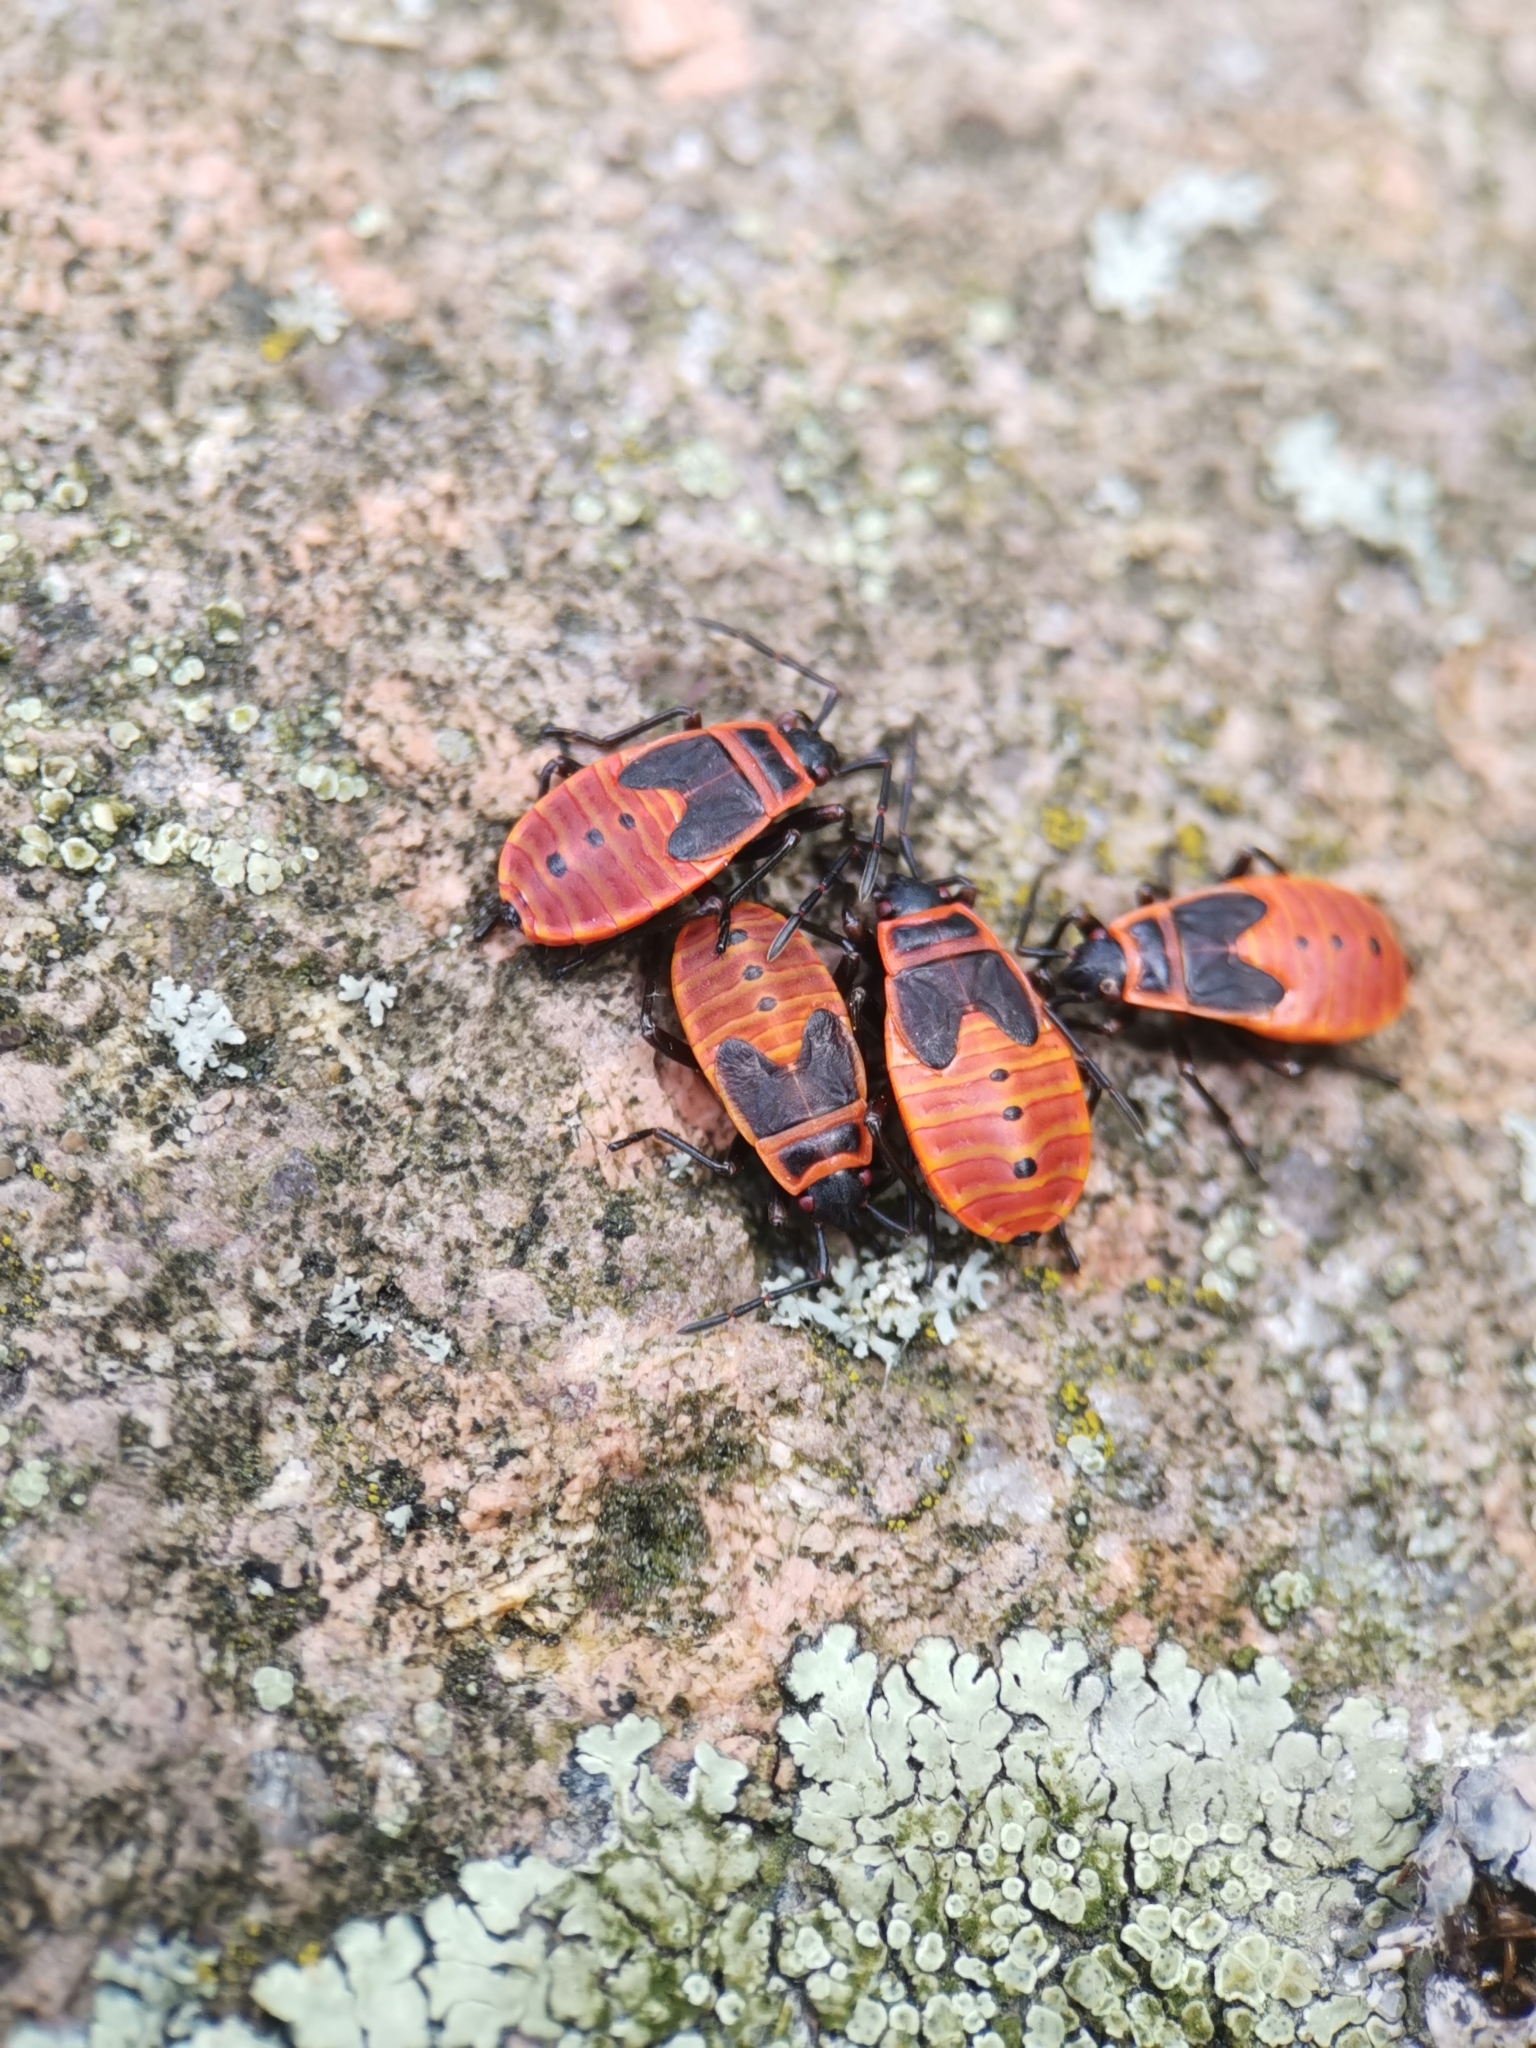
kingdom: Animalia
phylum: Arthropoda
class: Insecta
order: Hemiptera
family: Pyrrhocoridae
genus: Pyrrhocoris
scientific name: Pyrrhocoris apterus
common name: Firebug
